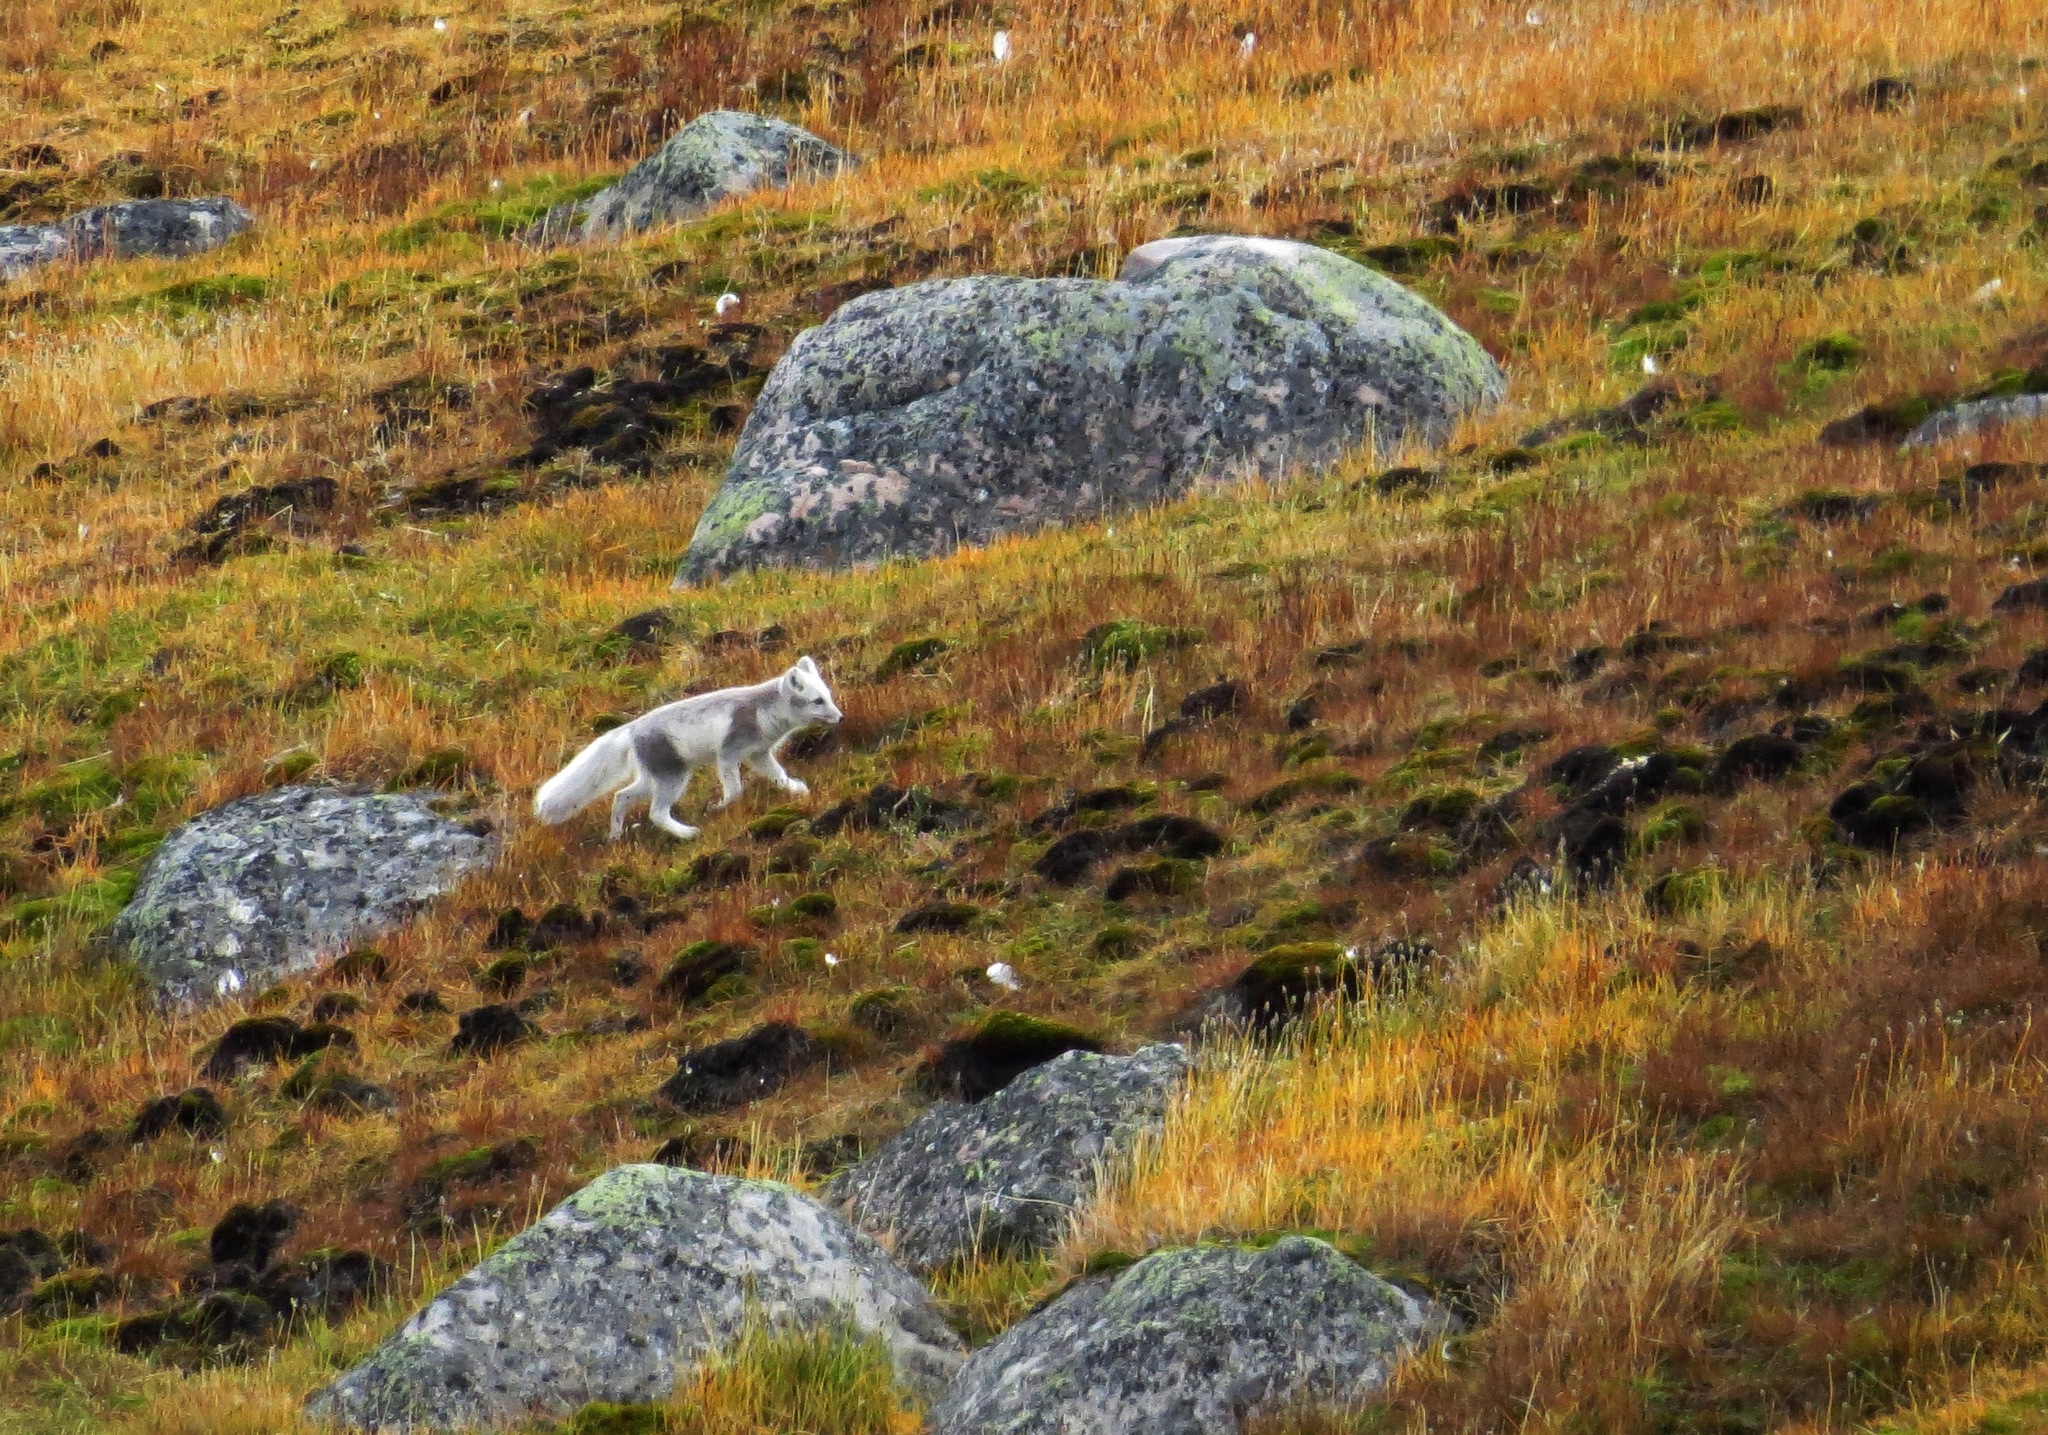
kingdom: Animalia
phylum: Chordata
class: Mammalia
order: Carnivora
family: Canidae
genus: Vulpes
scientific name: Vulpes lagopus
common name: Arctic fox
